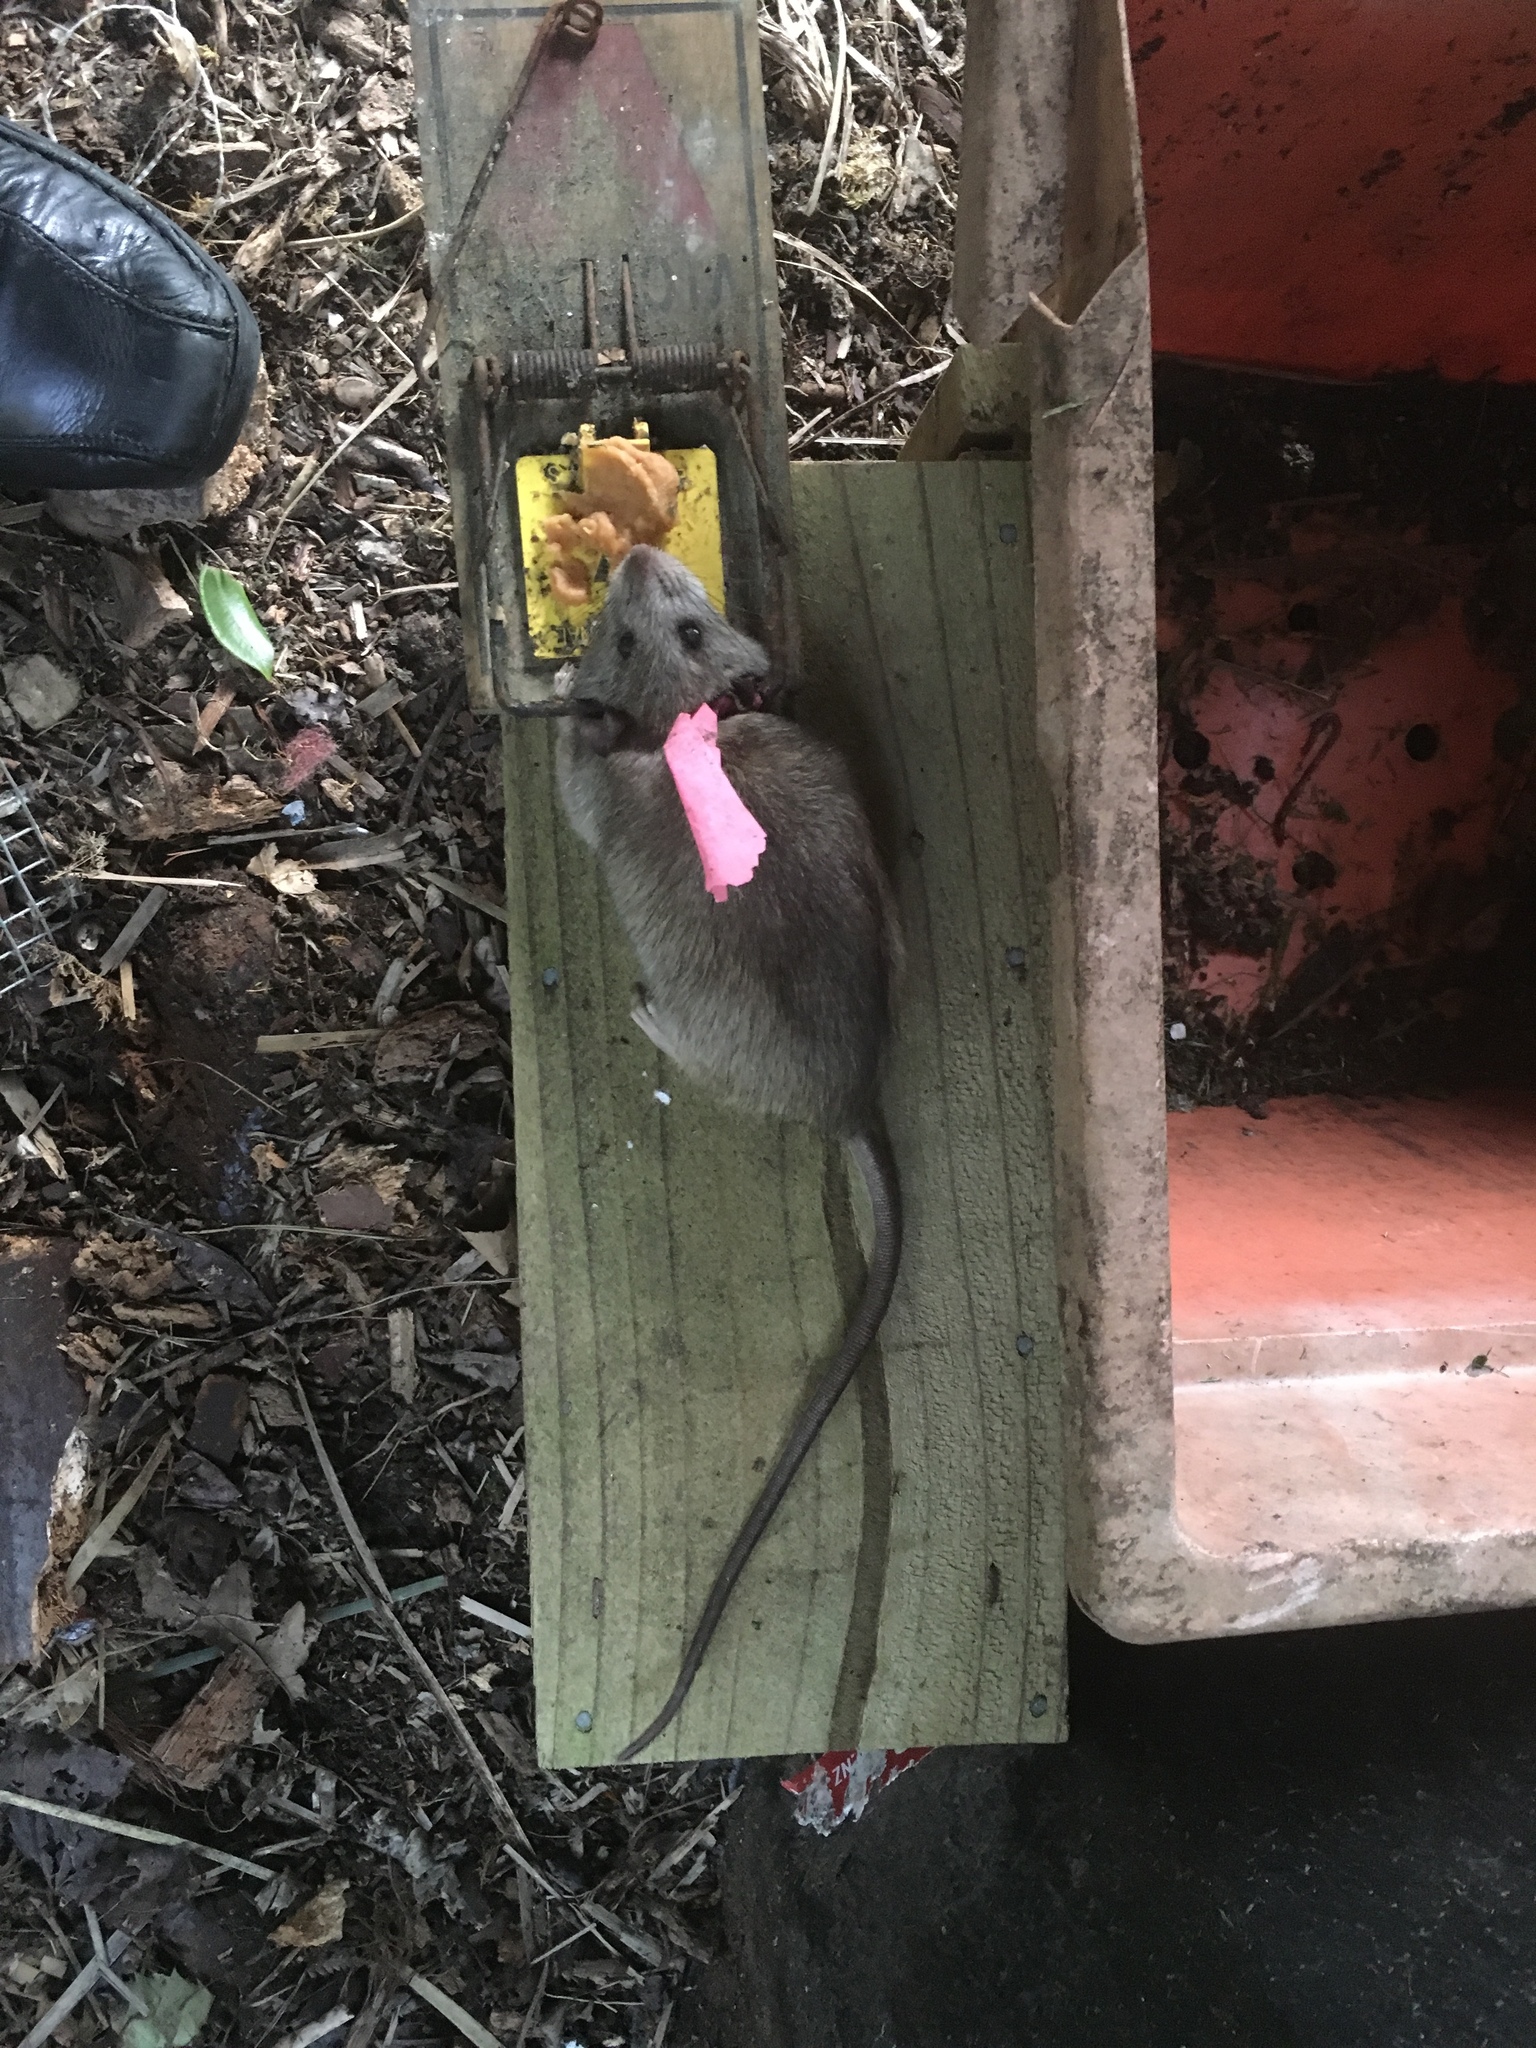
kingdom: Animalia
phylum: Chordata
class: Mammalia
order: Rodentia
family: Muridae
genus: Rattus
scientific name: Rattus rattus
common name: Black rat
